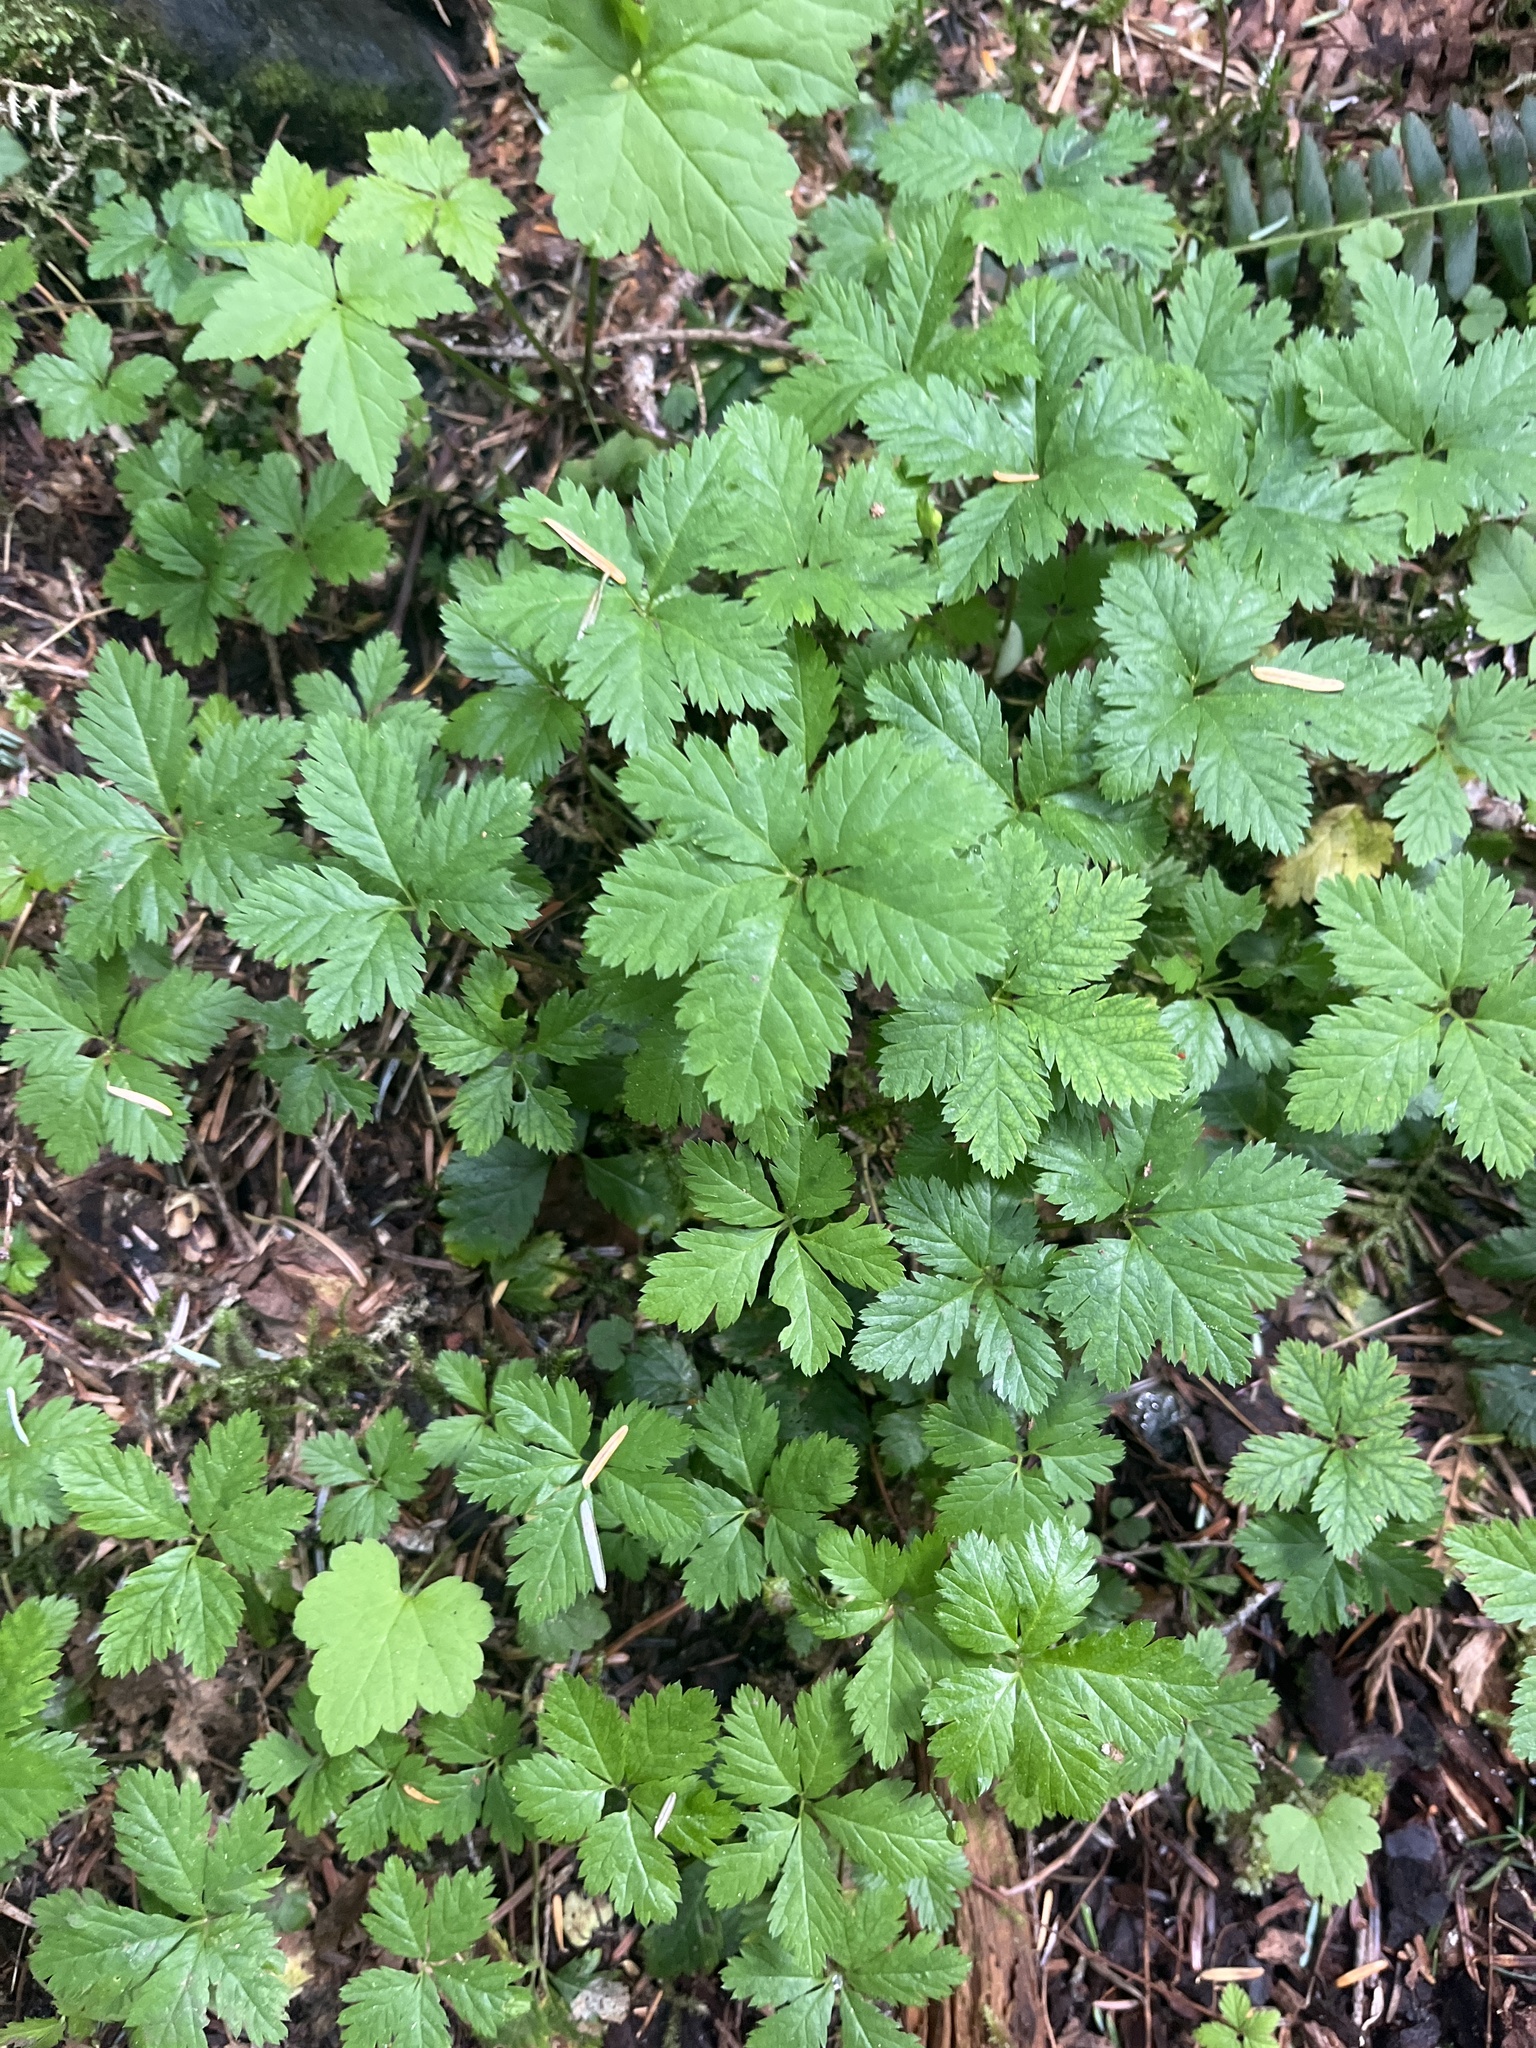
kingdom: Plantae
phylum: Tracheophyta
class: Magnoliopsida
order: Rosales
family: Rosaceae
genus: Rubus
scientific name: Rubus pedatus
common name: Creeping raspberry
